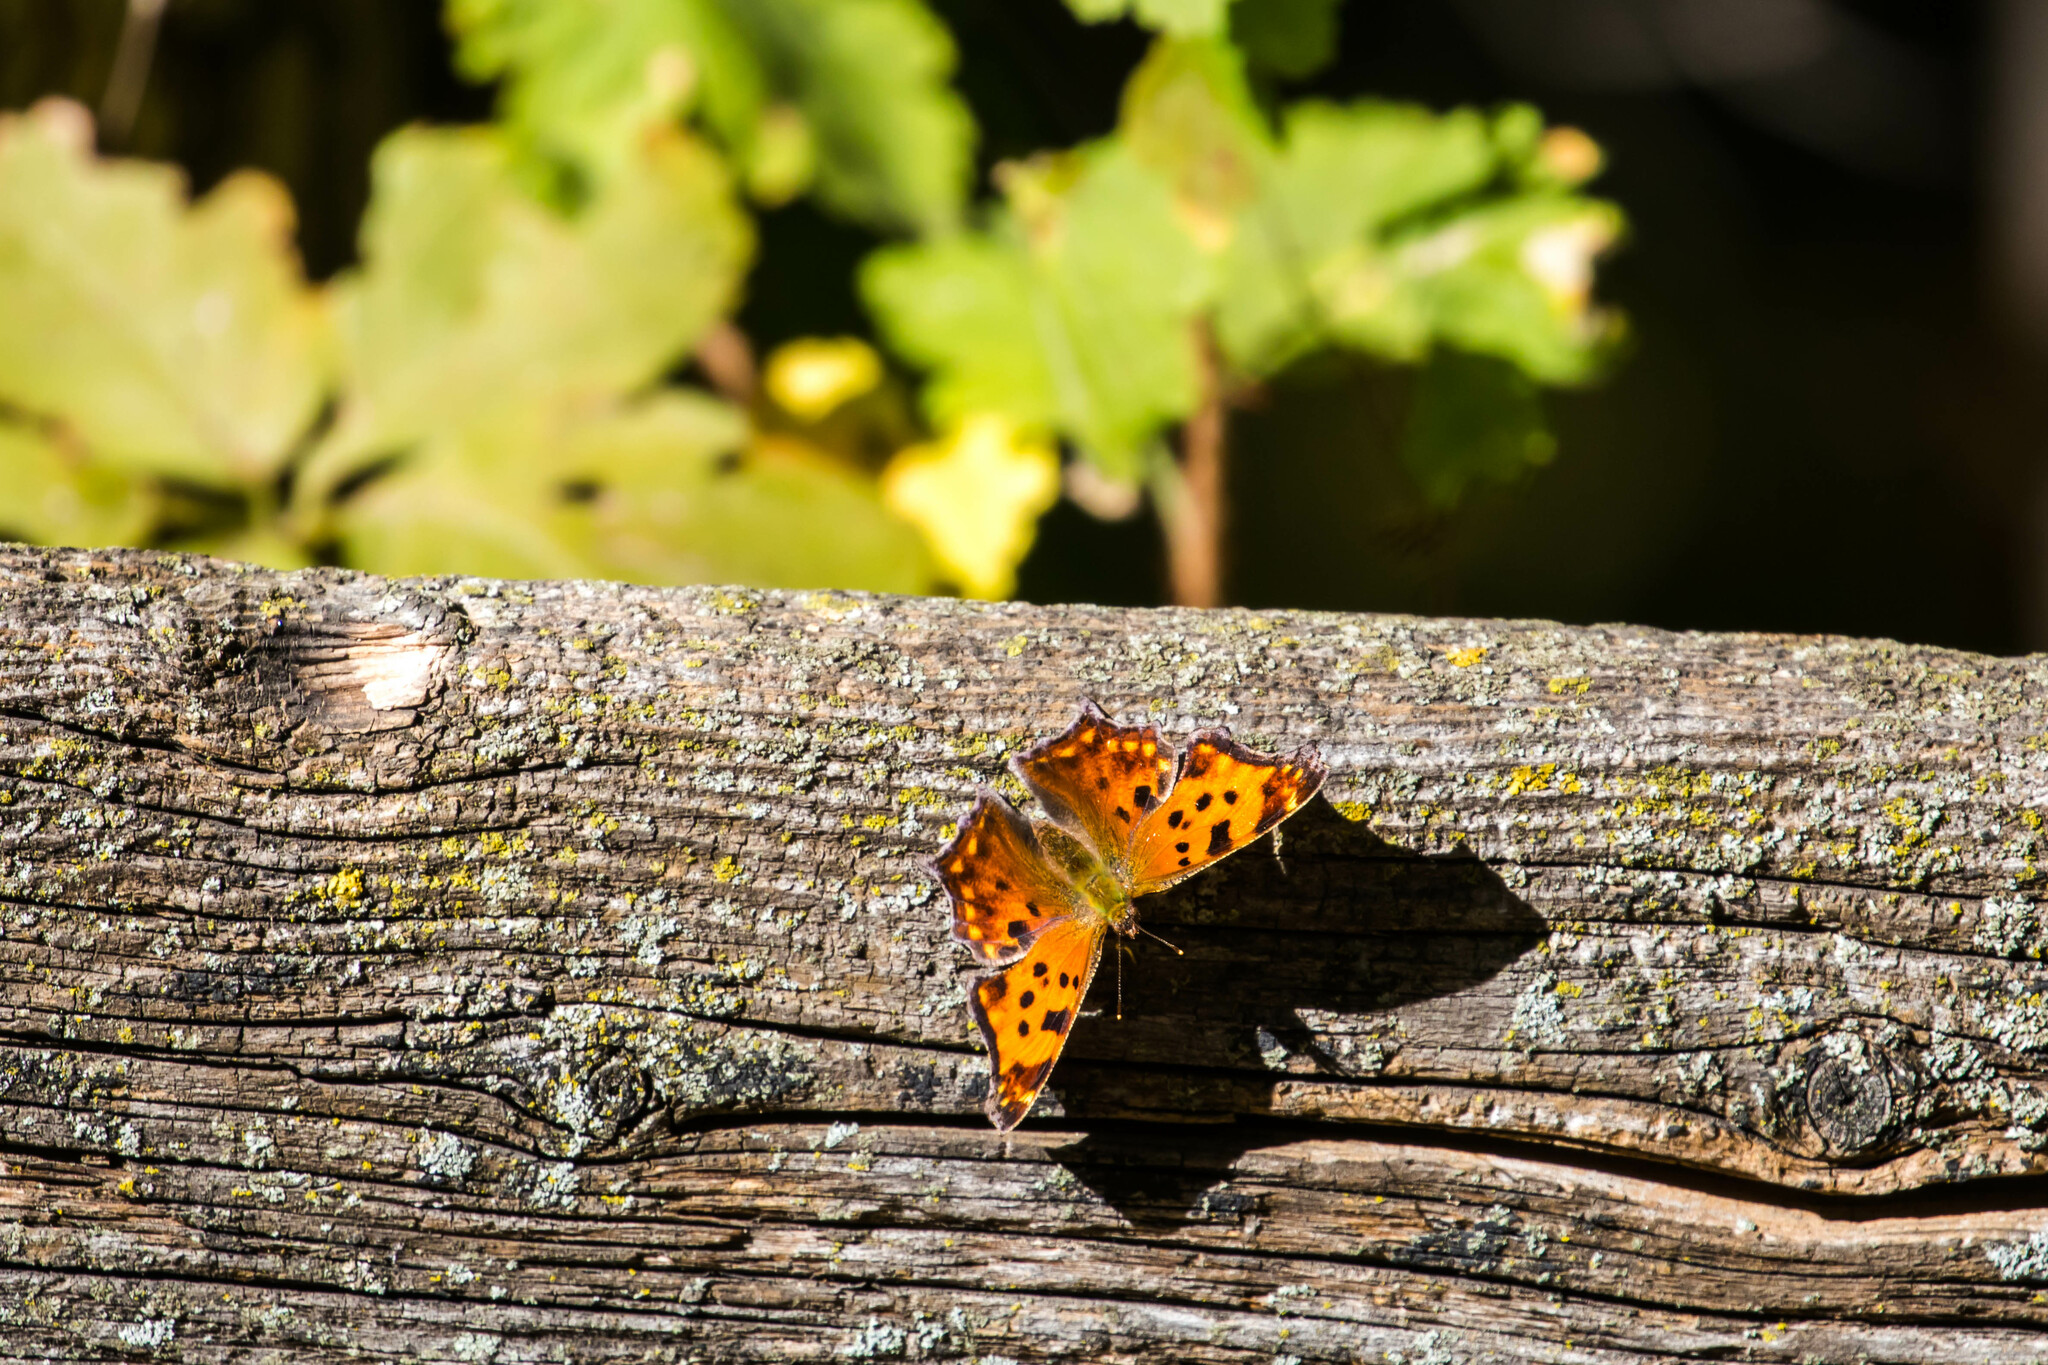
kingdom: Animalia
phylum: Arthropoda
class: Insecta
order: Lepidoptera
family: Nymphalidae
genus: Polygonia
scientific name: Polygonia comma
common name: Eastern comma
